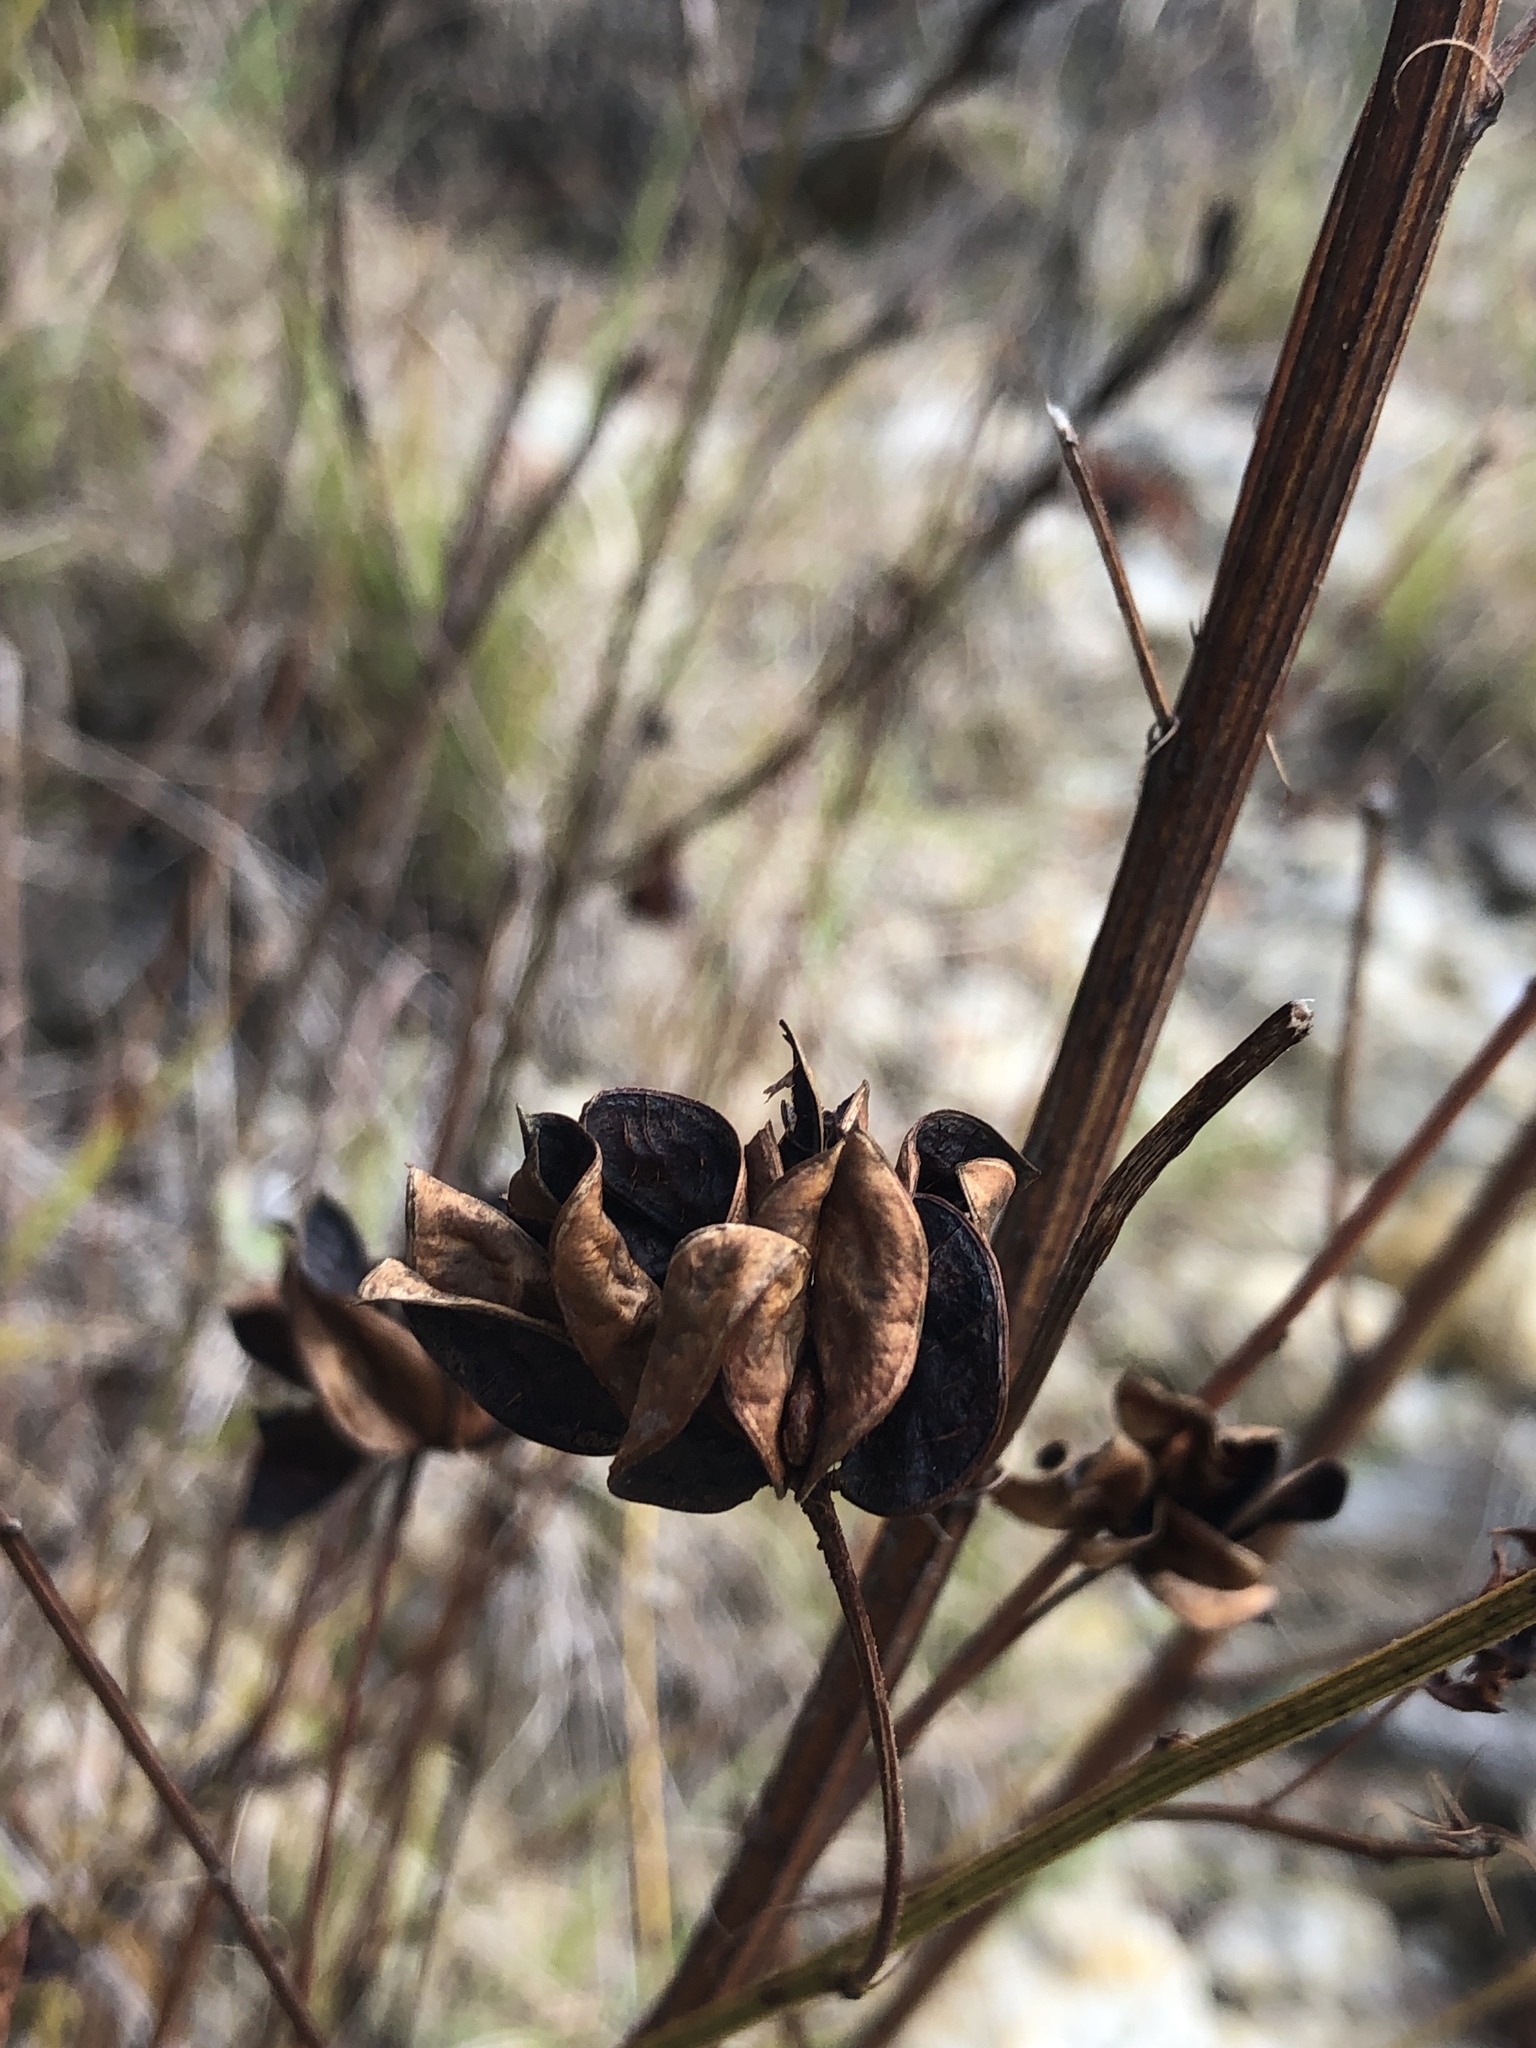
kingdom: Plantae
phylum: Tracheophyta
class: Magnoliopsida
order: Fabales
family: Fabaceae
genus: Desmanthus
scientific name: Desmanthus illinoensis
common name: Illinois bundle-flower
